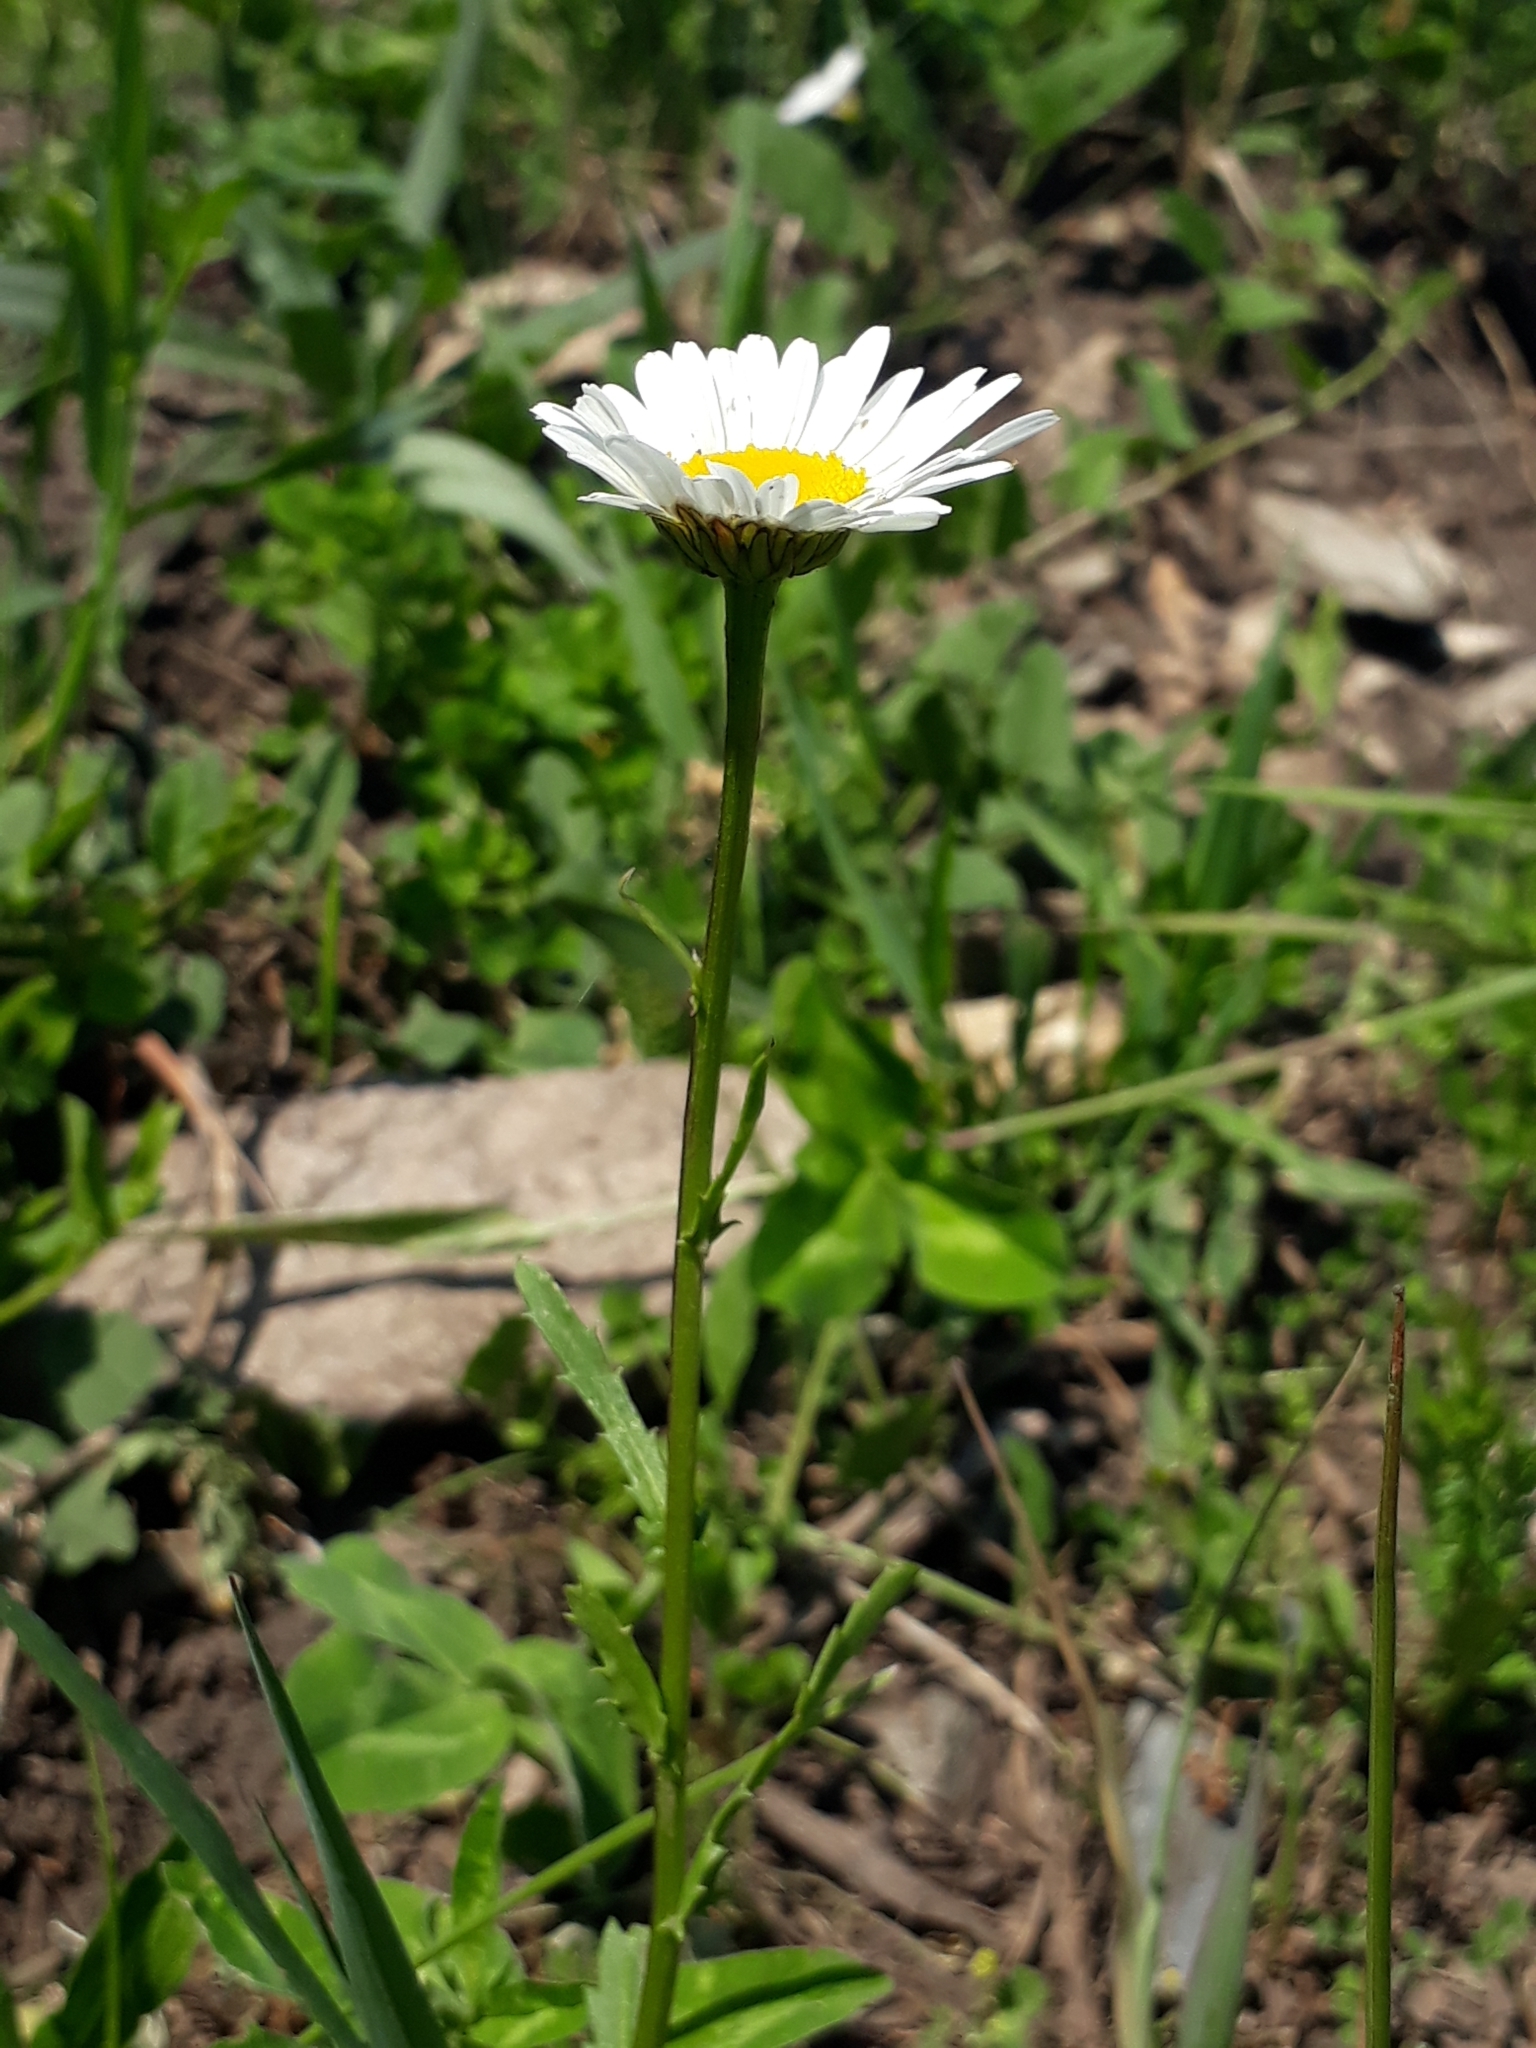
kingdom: Plantae
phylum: Tracheophyta
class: Magnoliopsida
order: Asterales
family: Asteraceae
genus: Leucanthemum
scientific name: Leucanthemum vulgare
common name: Oxeye daisy
